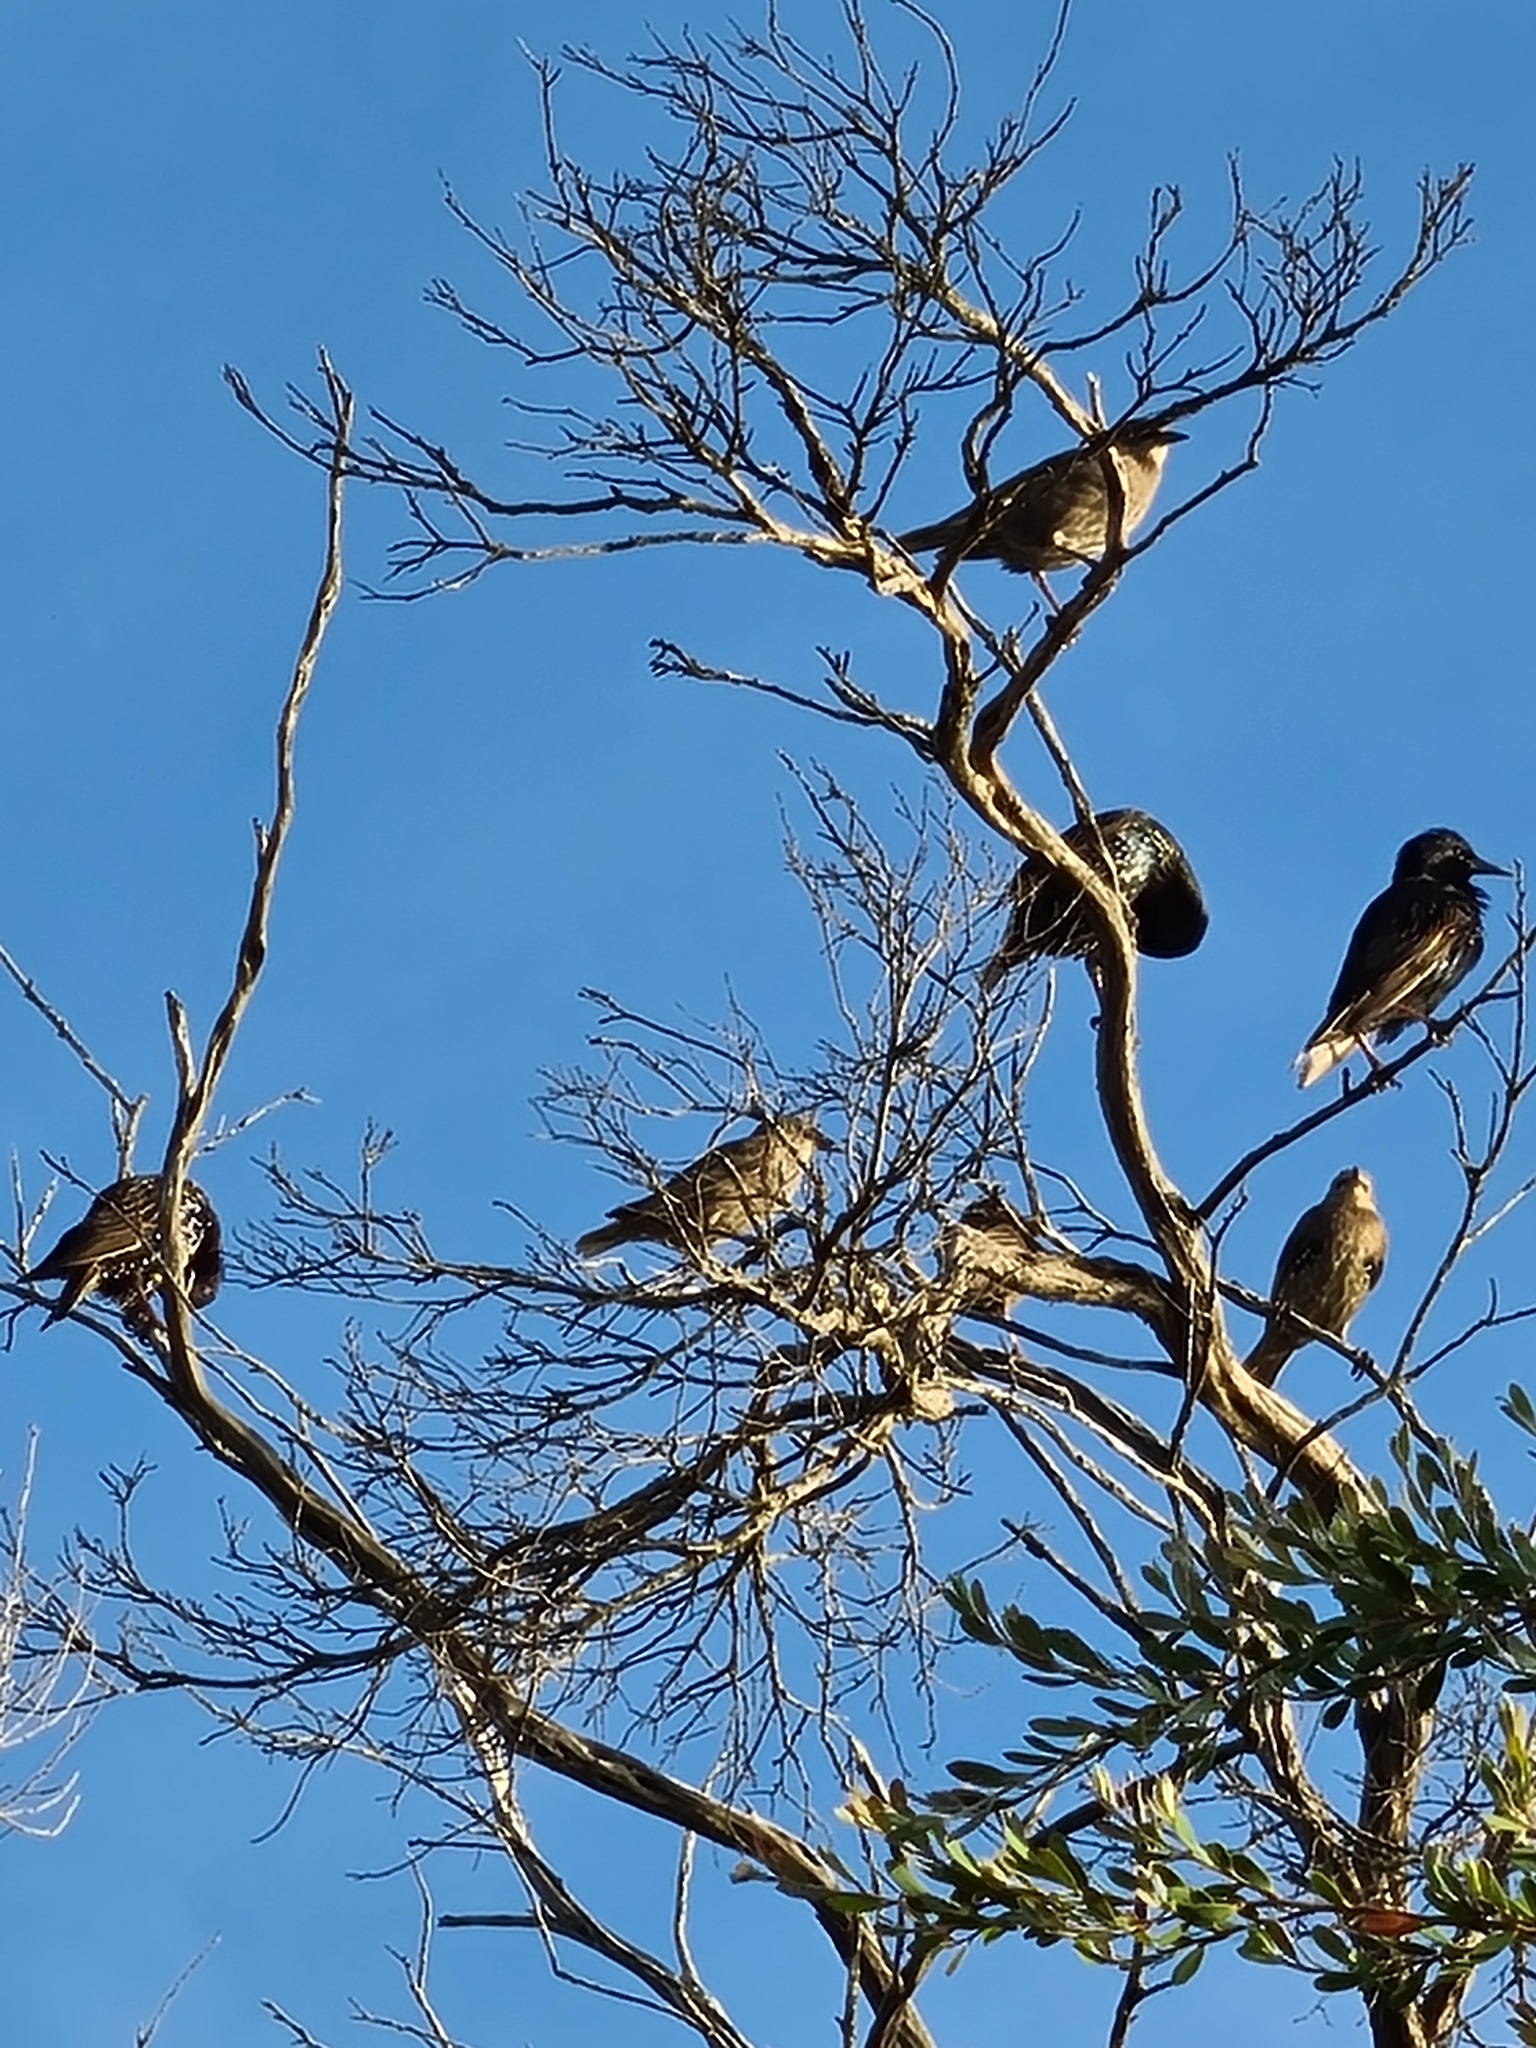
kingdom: Animalia
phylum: Chordata
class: Aves
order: Passeriformes
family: Sturnidae
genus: Sturnus
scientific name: Sturnus vulgaris
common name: Common starling
